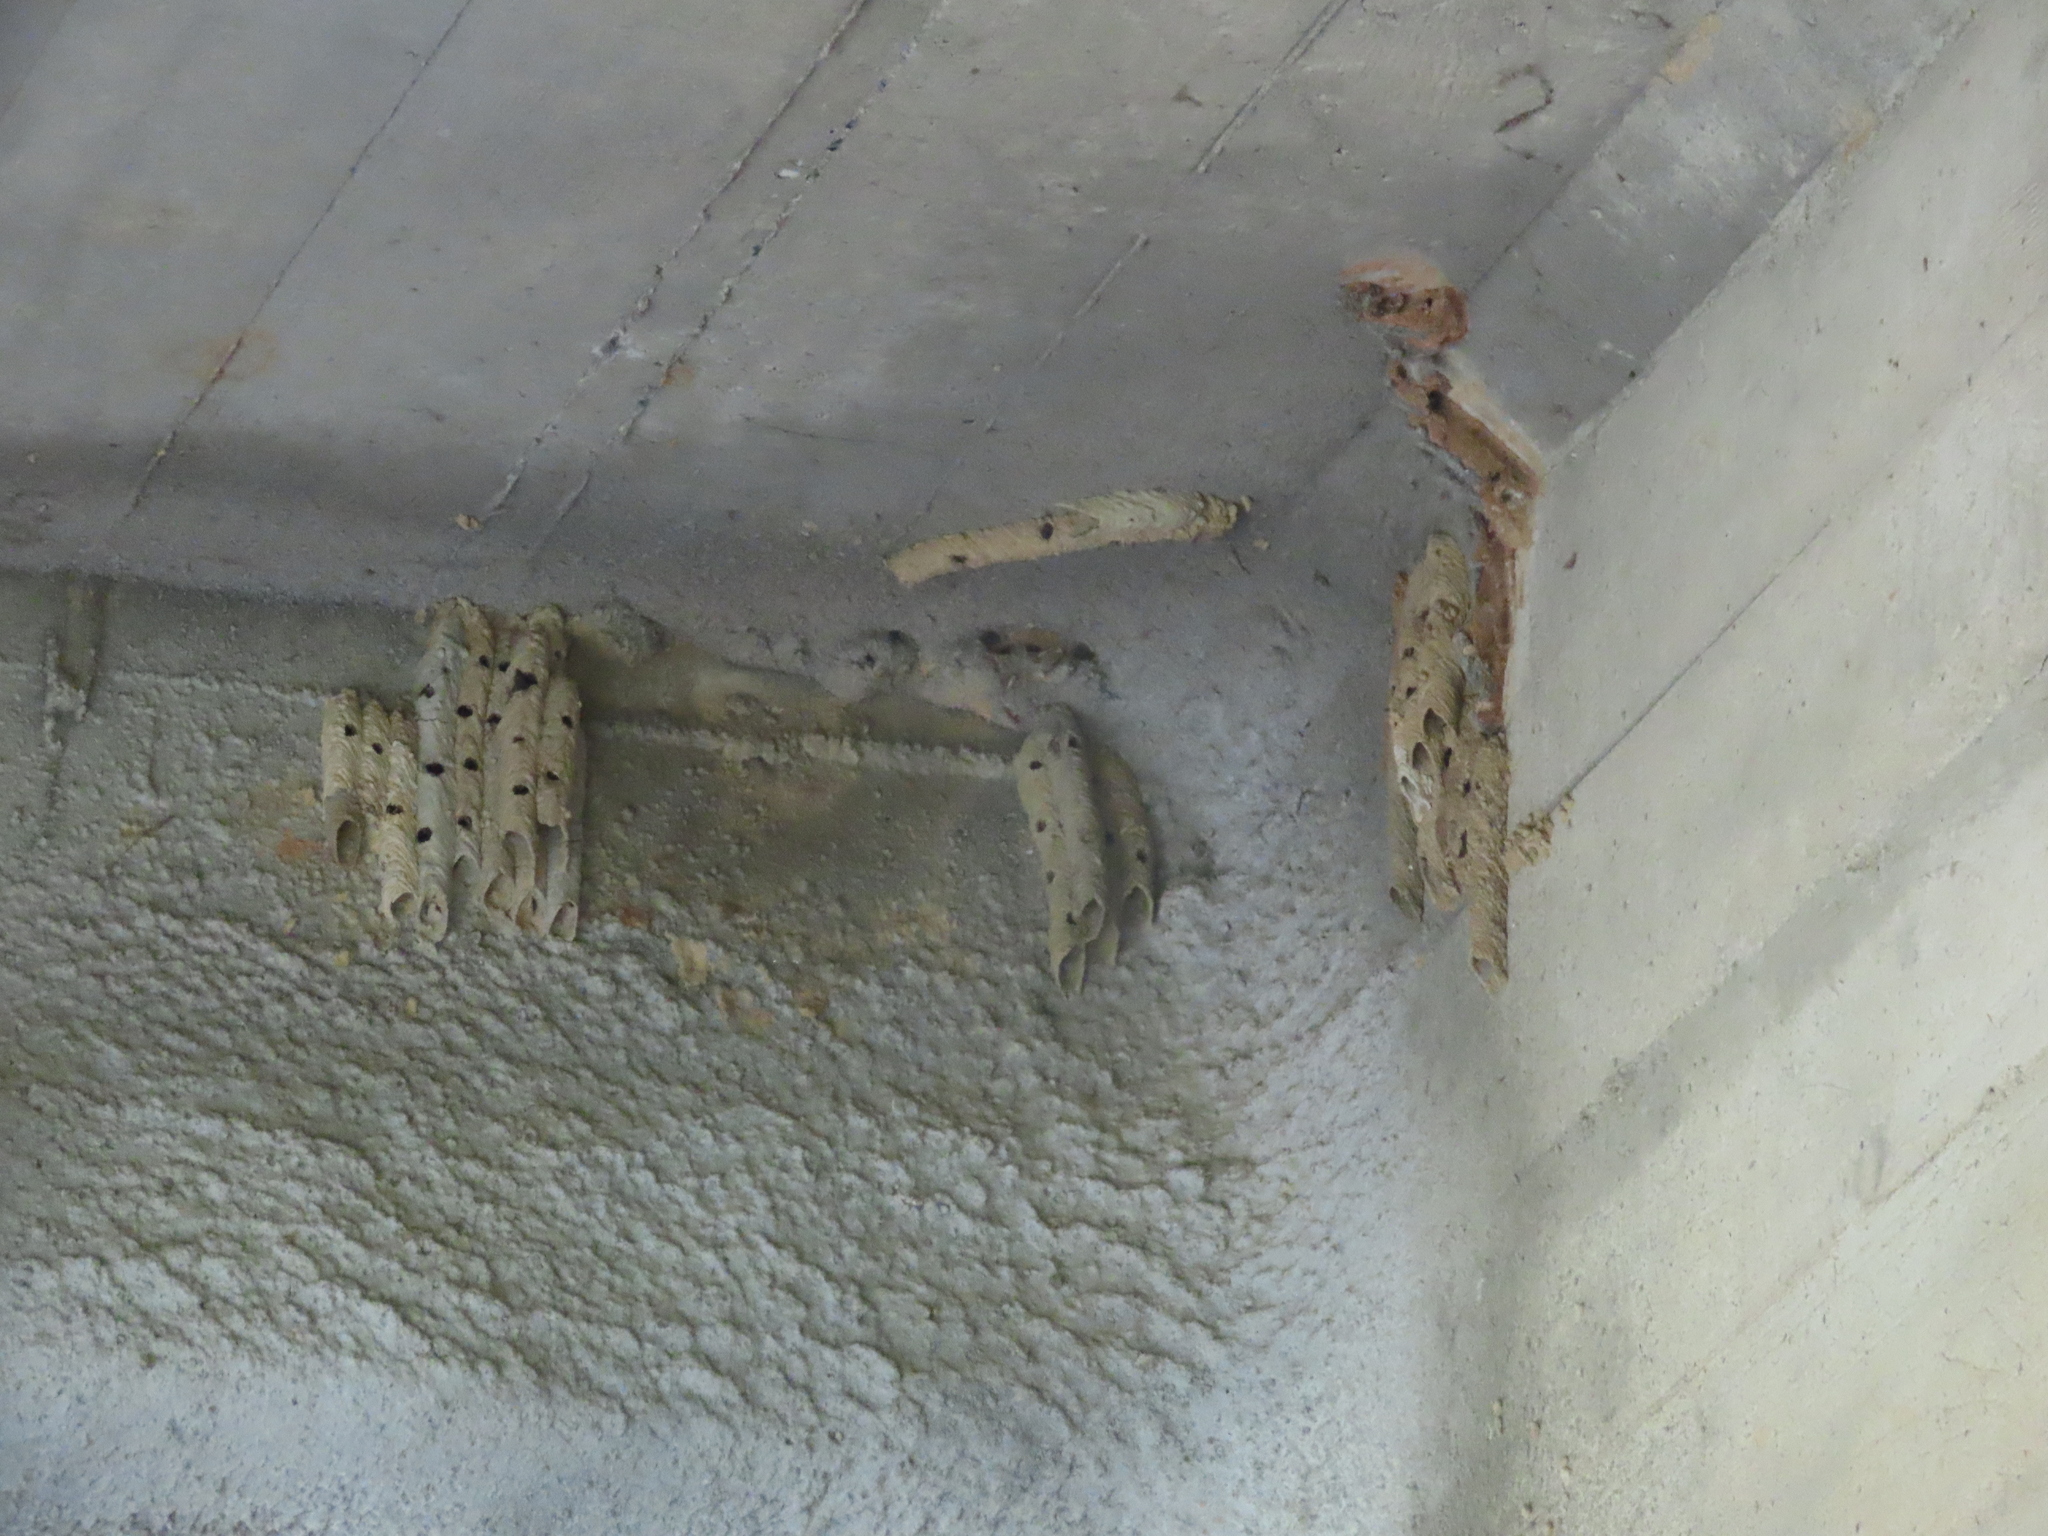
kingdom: Animalia
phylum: Arthropoda
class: Insecta
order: Hymenoptera
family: Crabronidae
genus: Trypoxylon
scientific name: Trypoxylon politum
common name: Organ-pipe mud-dauber wasp
